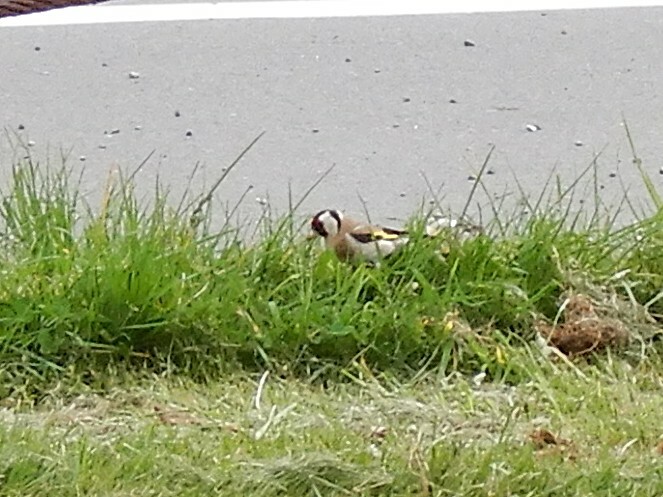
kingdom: Animalia
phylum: Chordata
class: Aves
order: Passeriformes
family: Fringillidae
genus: Carduelis
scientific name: Carduelis carduelis
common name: European goldfinch
